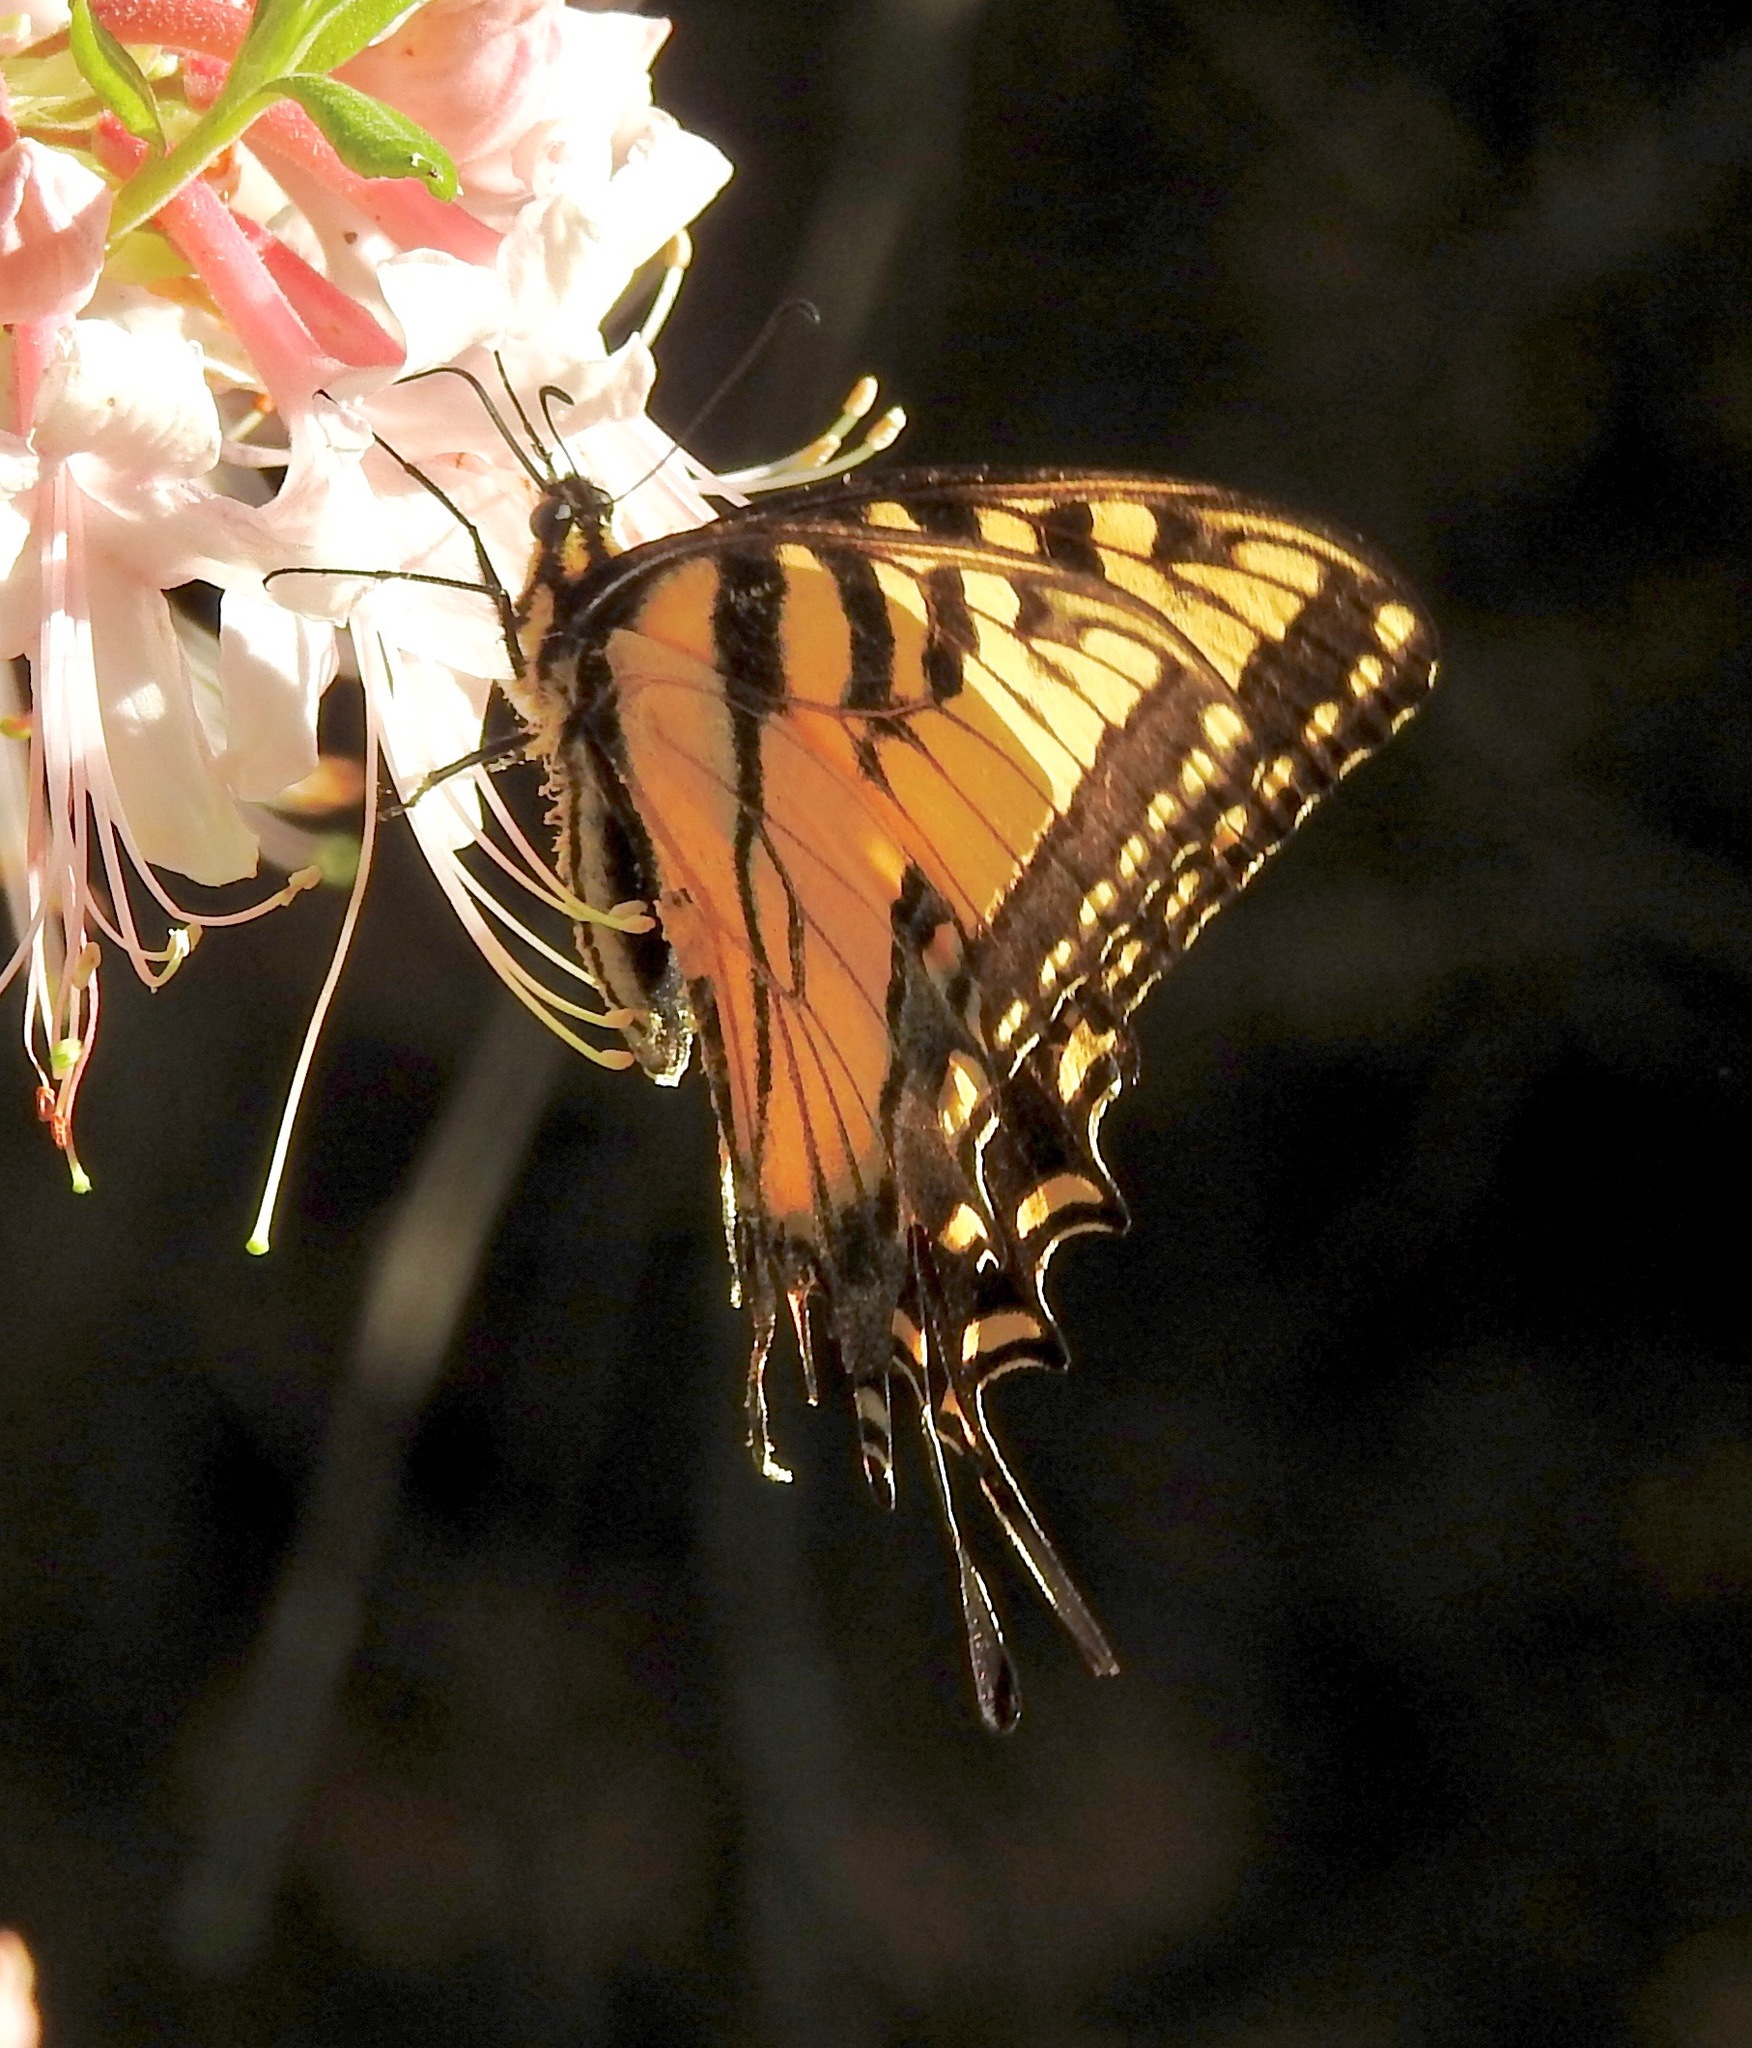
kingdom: Animalia
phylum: Arthropoda
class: Insecta
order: Lepidoptera
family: Papilionidae
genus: Papilio
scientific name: Papilio glaucus
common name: Tiger swallowtail
